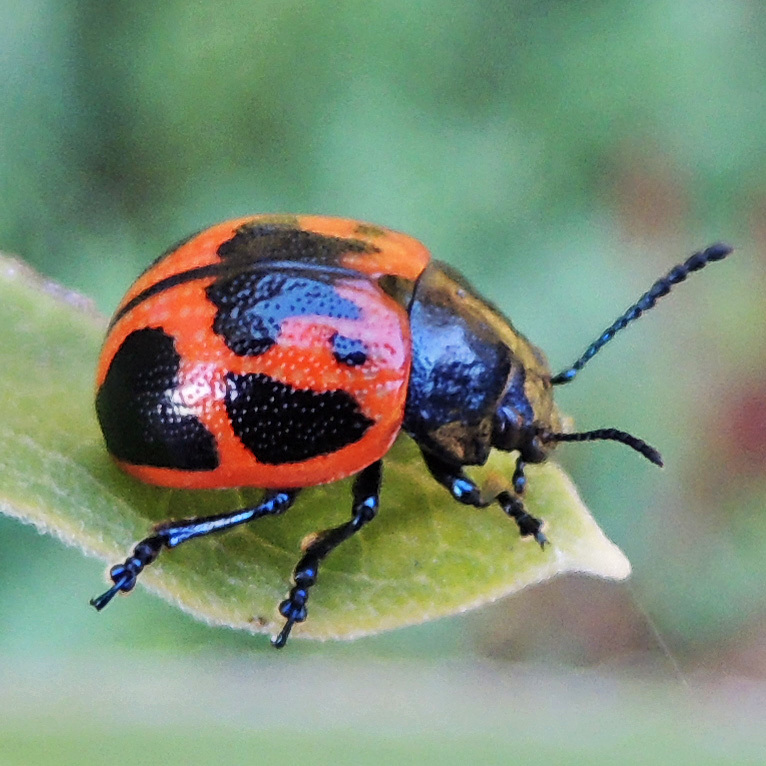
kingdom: Animalia
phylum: Arthropoda
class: Insecta
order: Coleoptera
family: Chrysomelidae
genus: Labidomera
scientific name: Labidomera clivicollis
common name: Swamp milkweed leaf beetle
